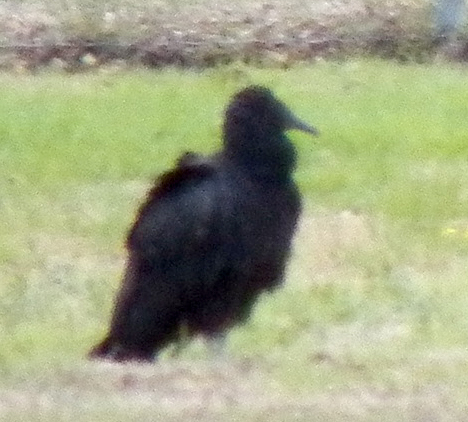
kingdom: Animalia
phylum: Chordata
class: Aves
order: Accipitriformes
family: Cathartidae
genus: Coragyps
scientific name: Coragyps atratus
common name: Black vulture
